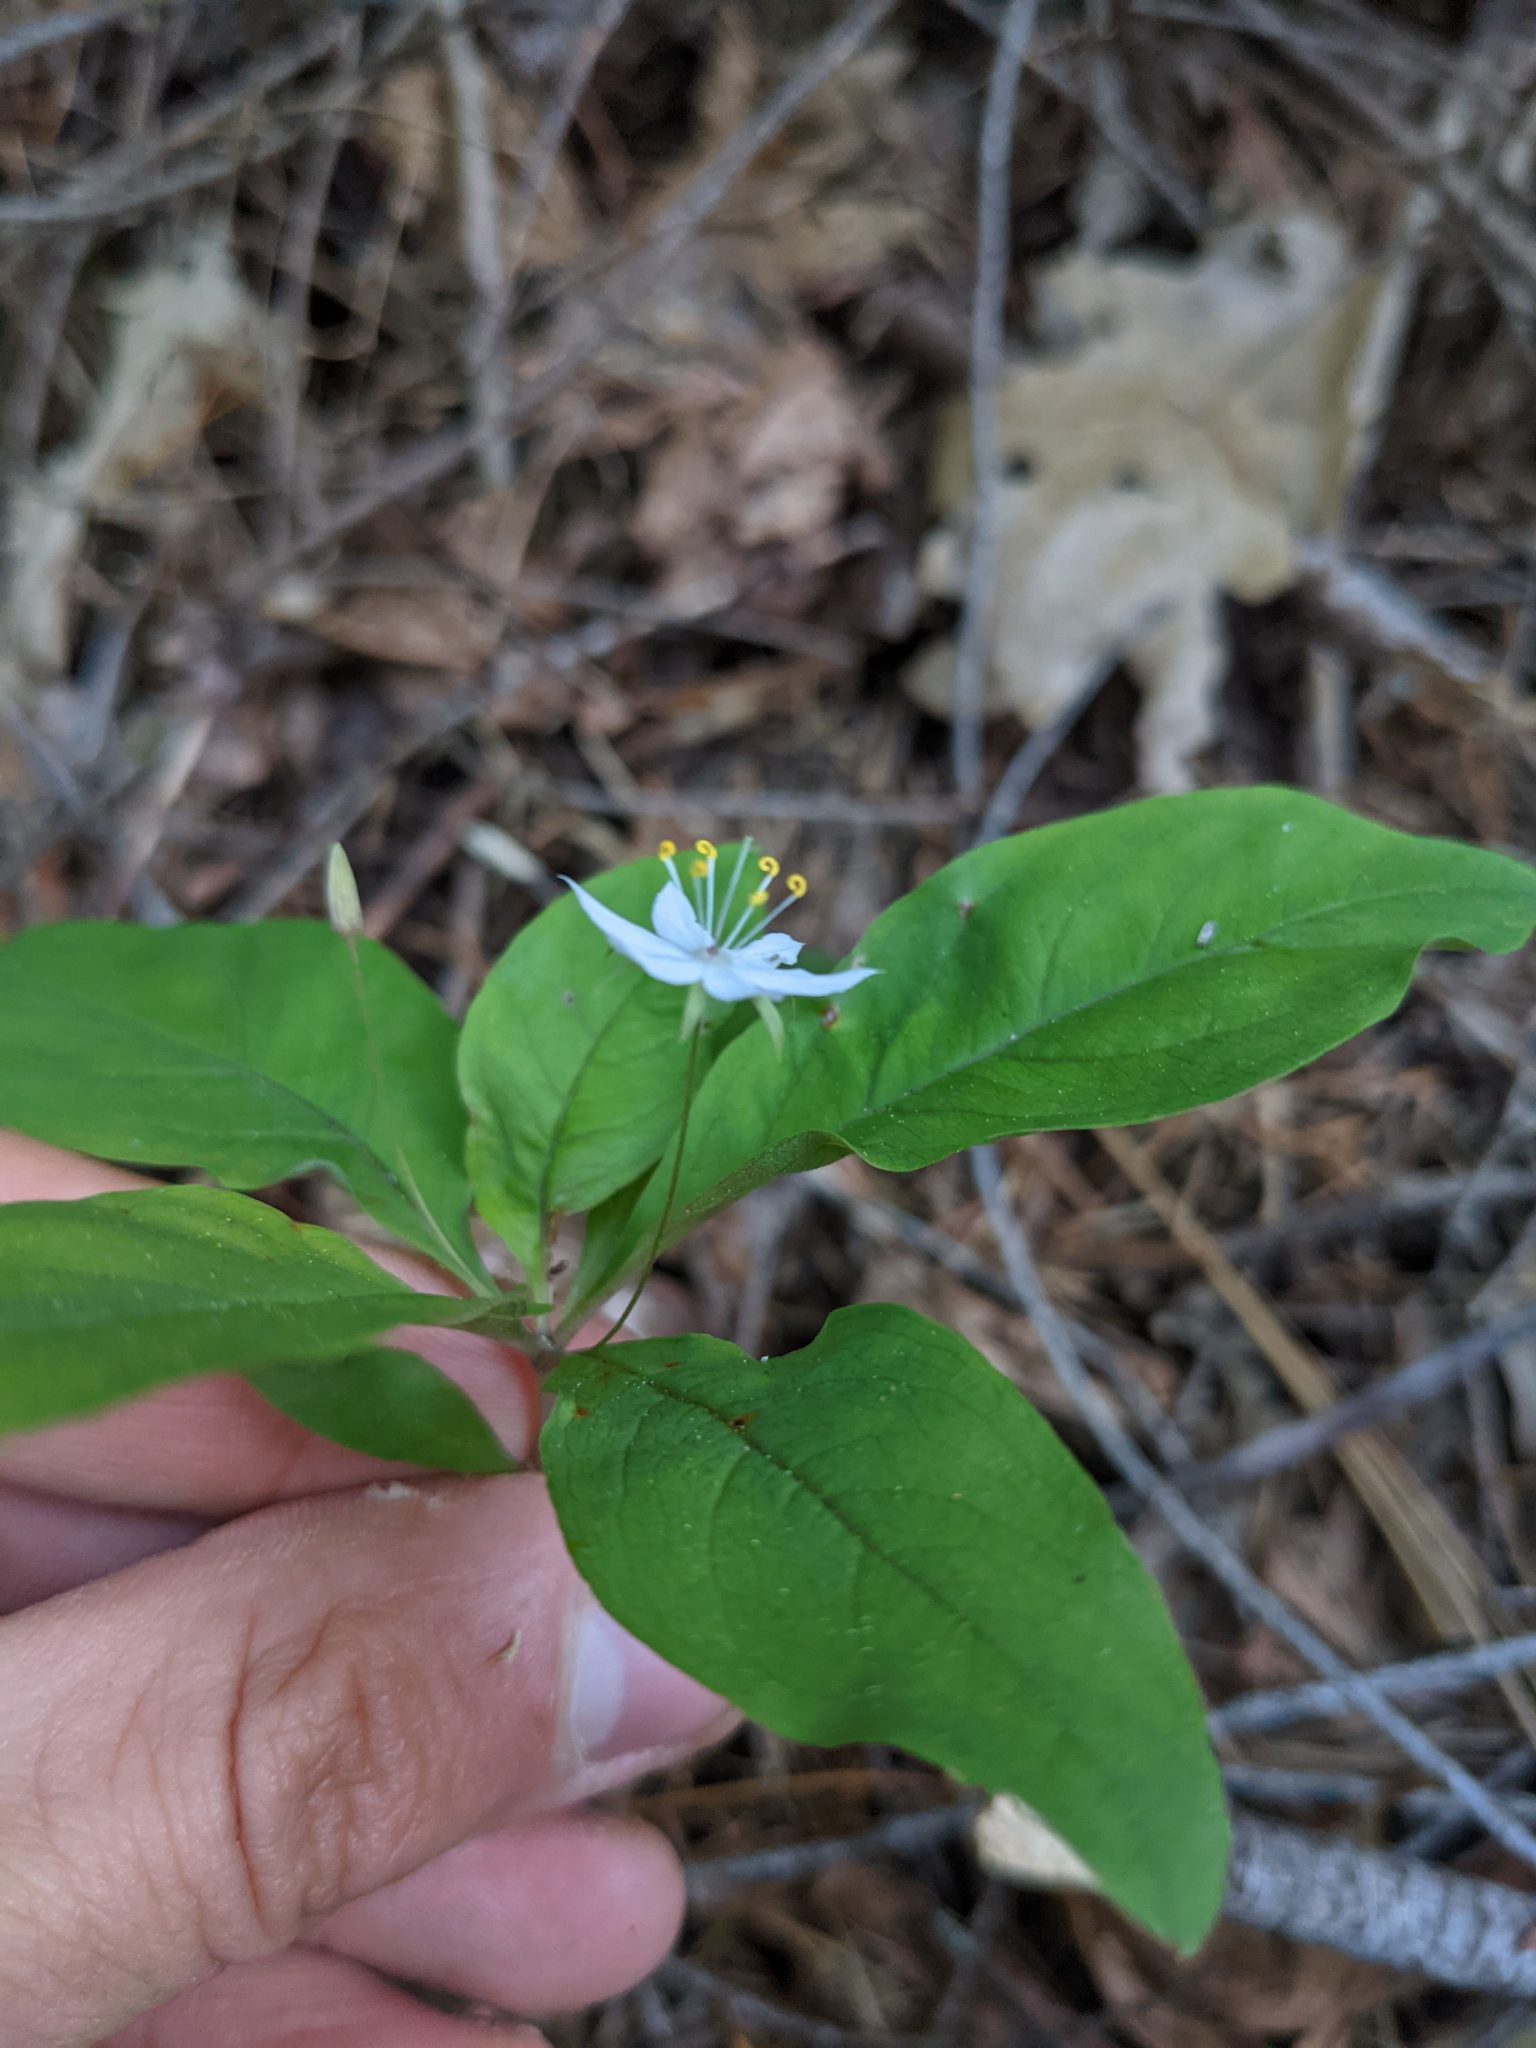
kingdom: Plantae
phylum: Tracheophyta
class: Magnoliopsida
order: Ericales
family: Primulaceae
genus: Lysimachia
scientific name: Lysimachia latifolia
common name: Pacific starflower
